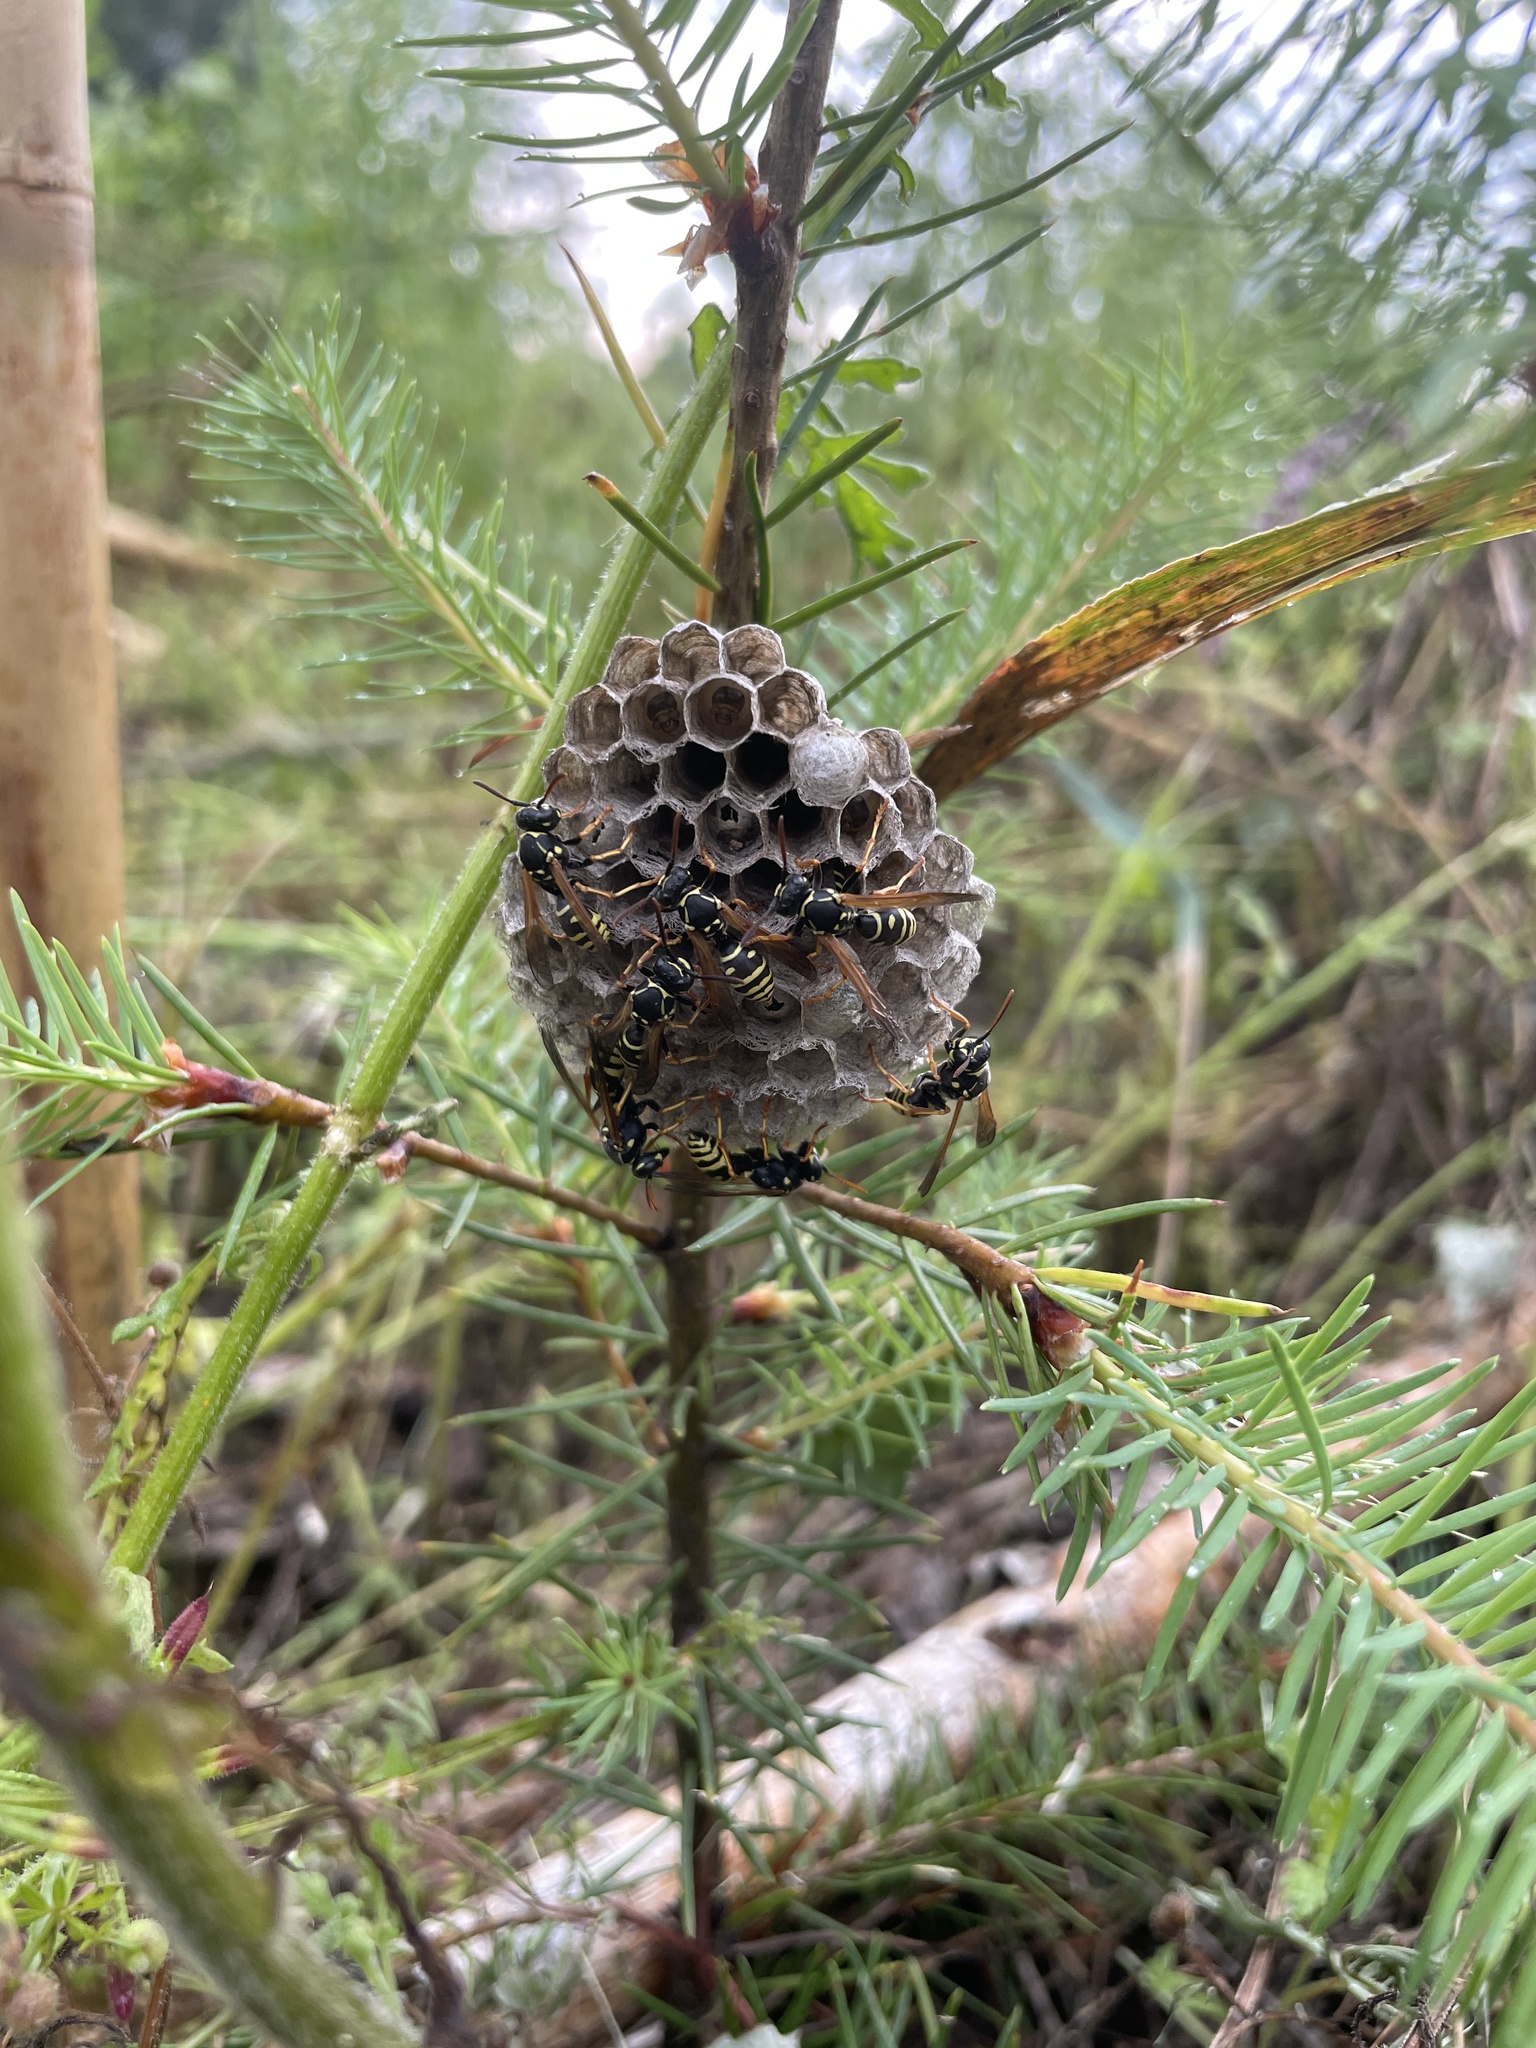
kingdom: Animalia
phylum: Arthropoda
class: Insecta
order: Hymenoptera
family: Eumenidae
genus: Polistes
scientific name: Polistes nimpha
